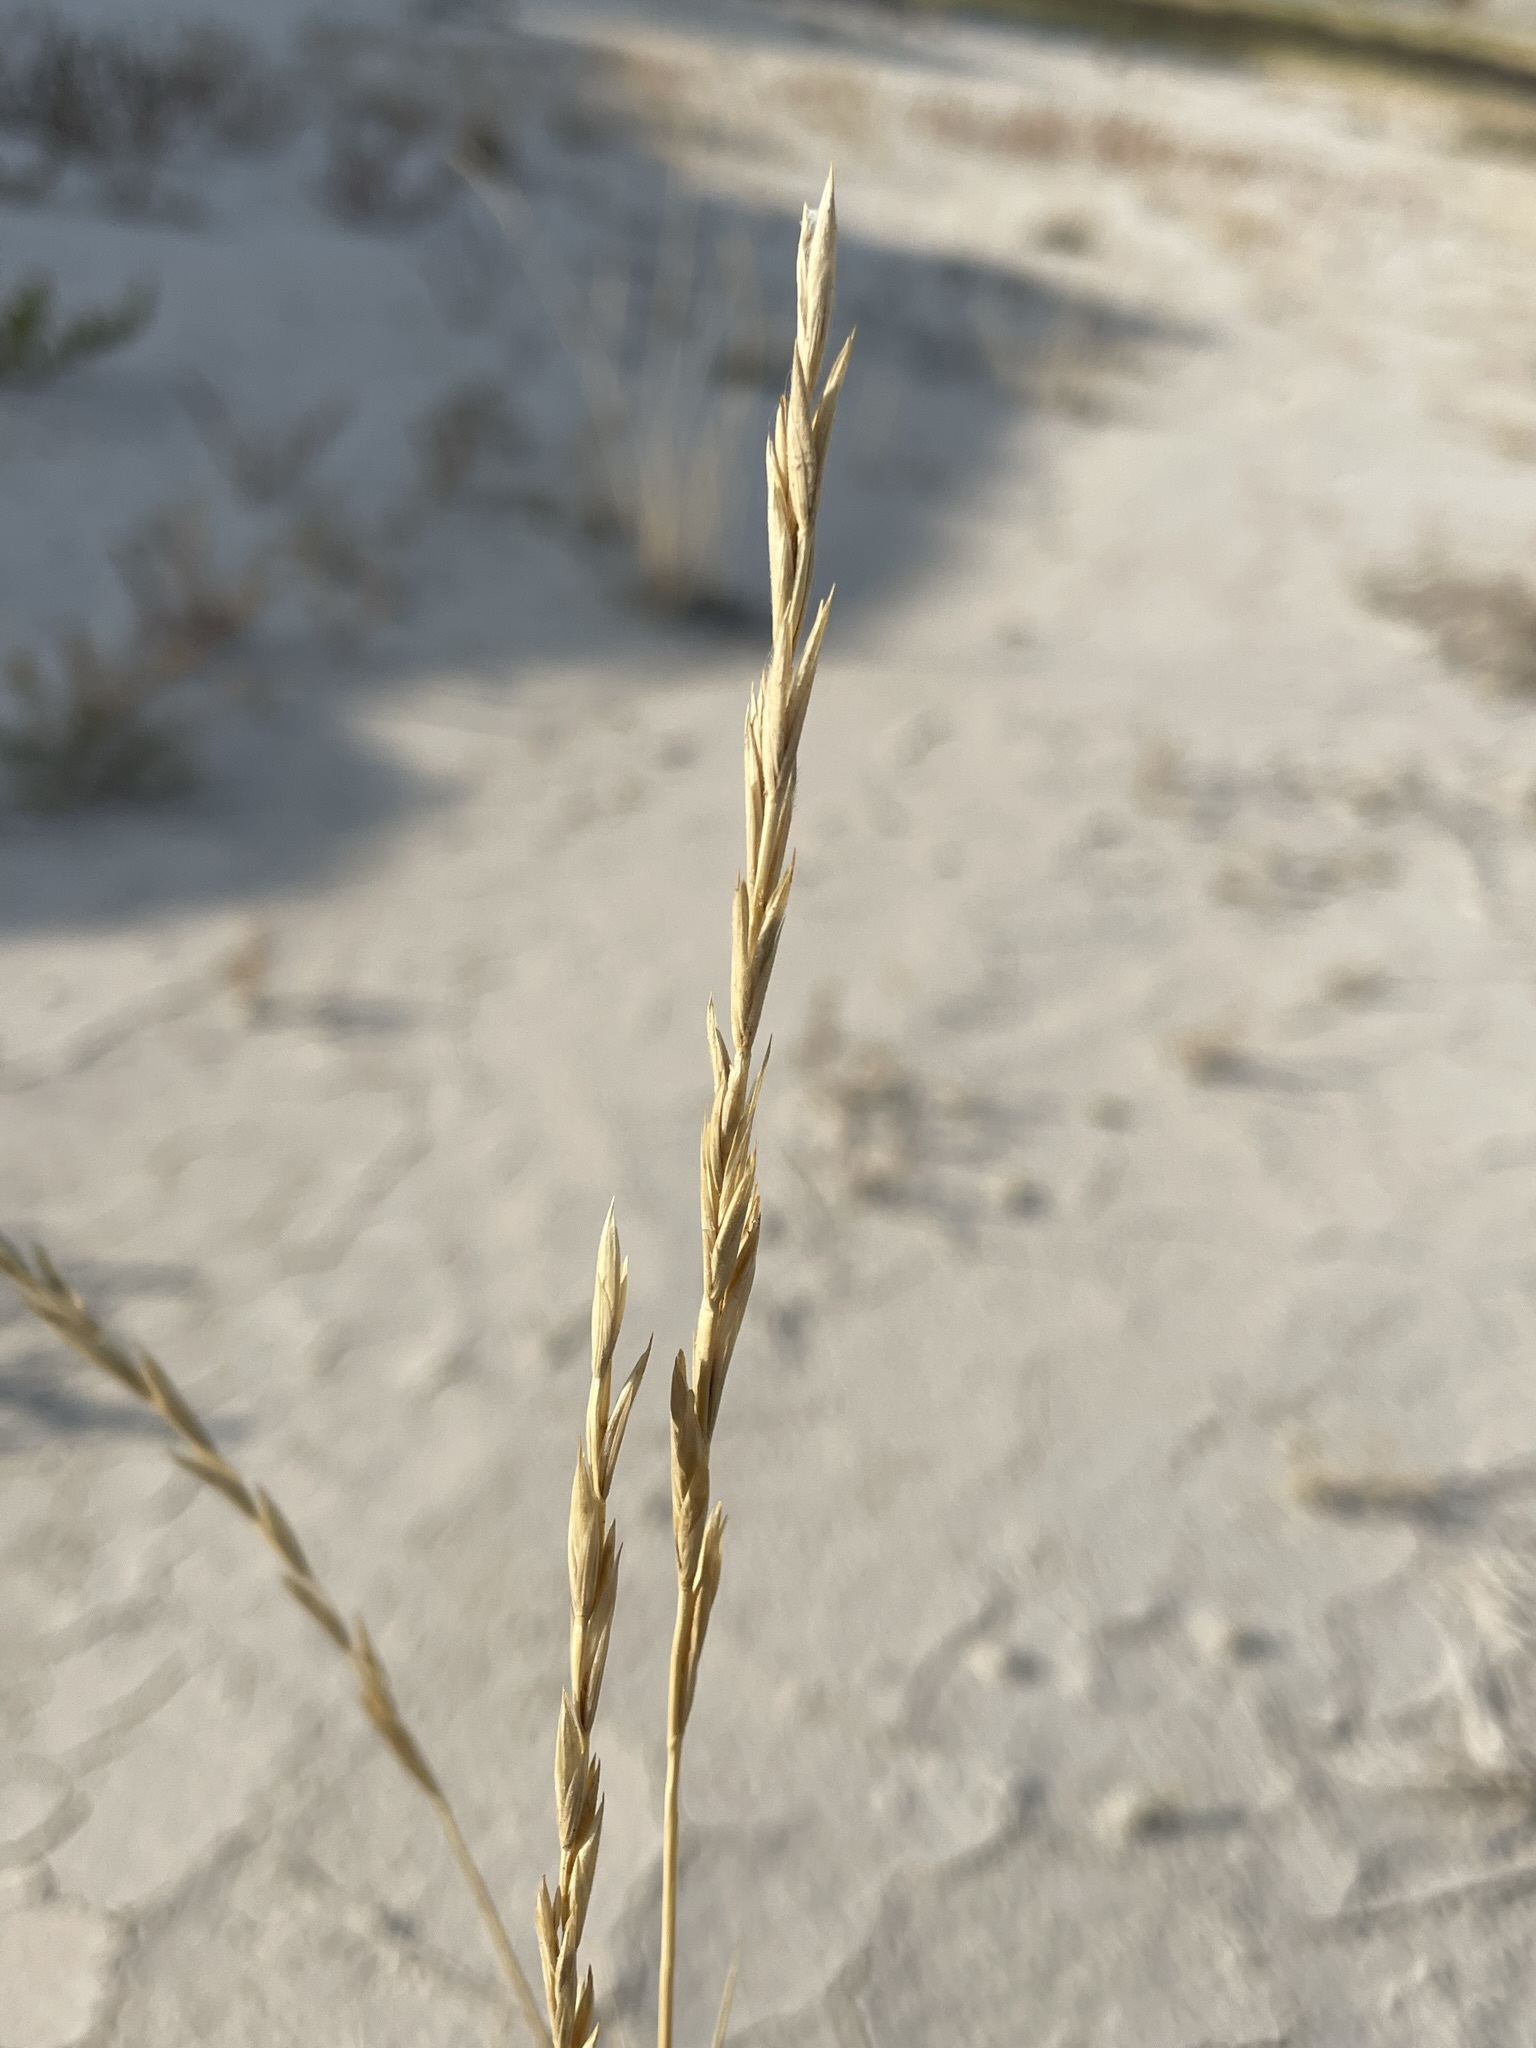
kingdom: Plantae
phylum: Tracheophyta
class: Liliopsida
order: Poales
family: Poaceae
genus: Elymus
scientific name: Elymus smithii
